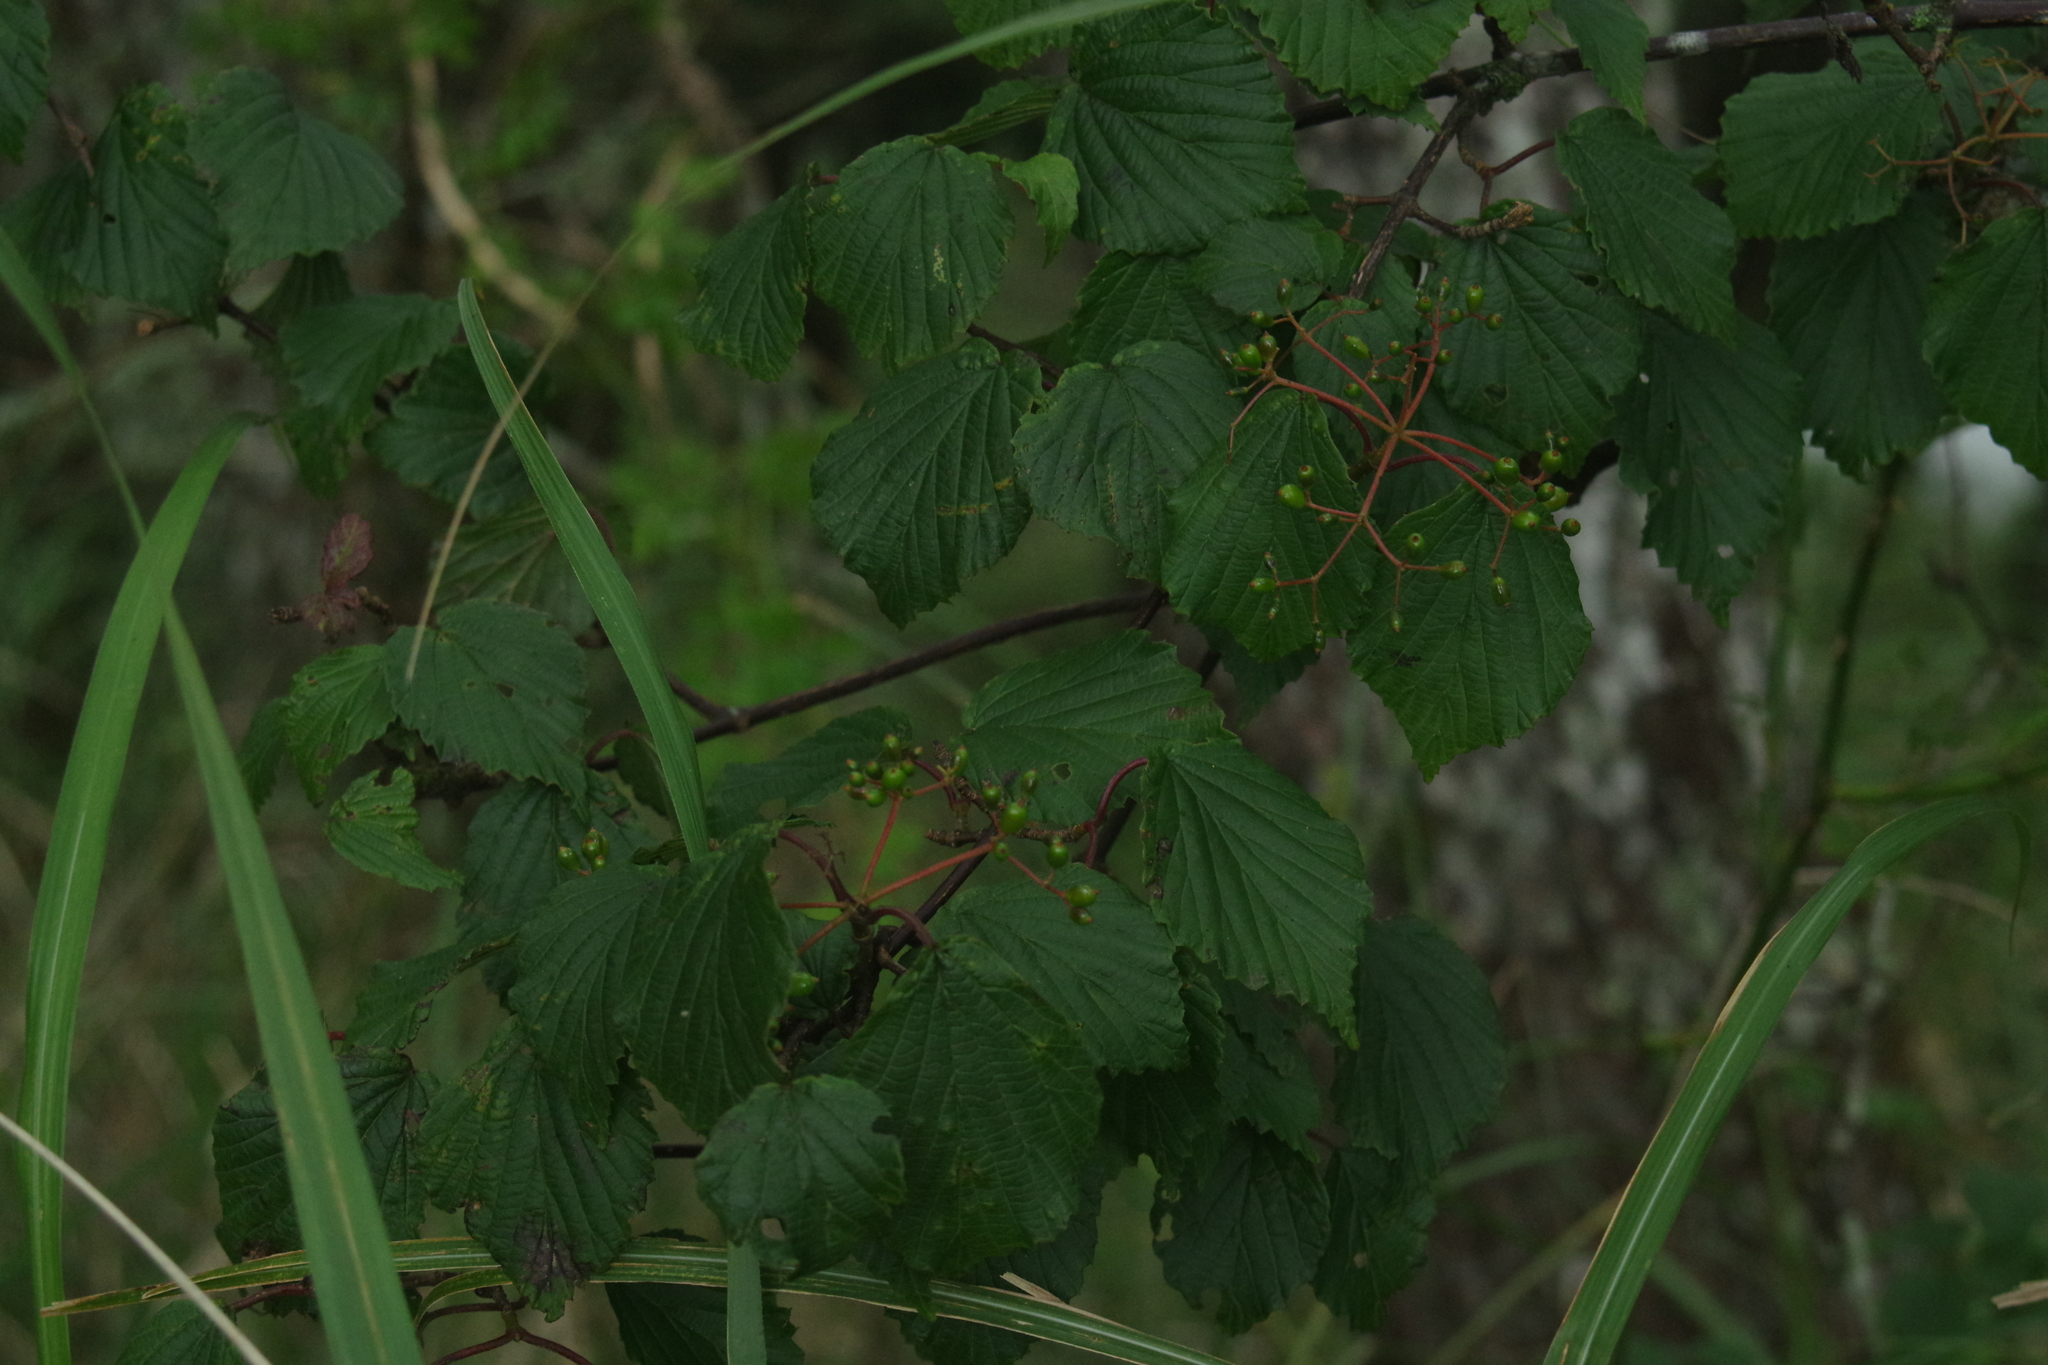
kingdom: Plantae
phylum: Tracheophyta
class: Magnoliopsida
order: Dipsacales
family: Viburnaceae
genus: Viburnum
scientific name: Viburnum betulifolium
